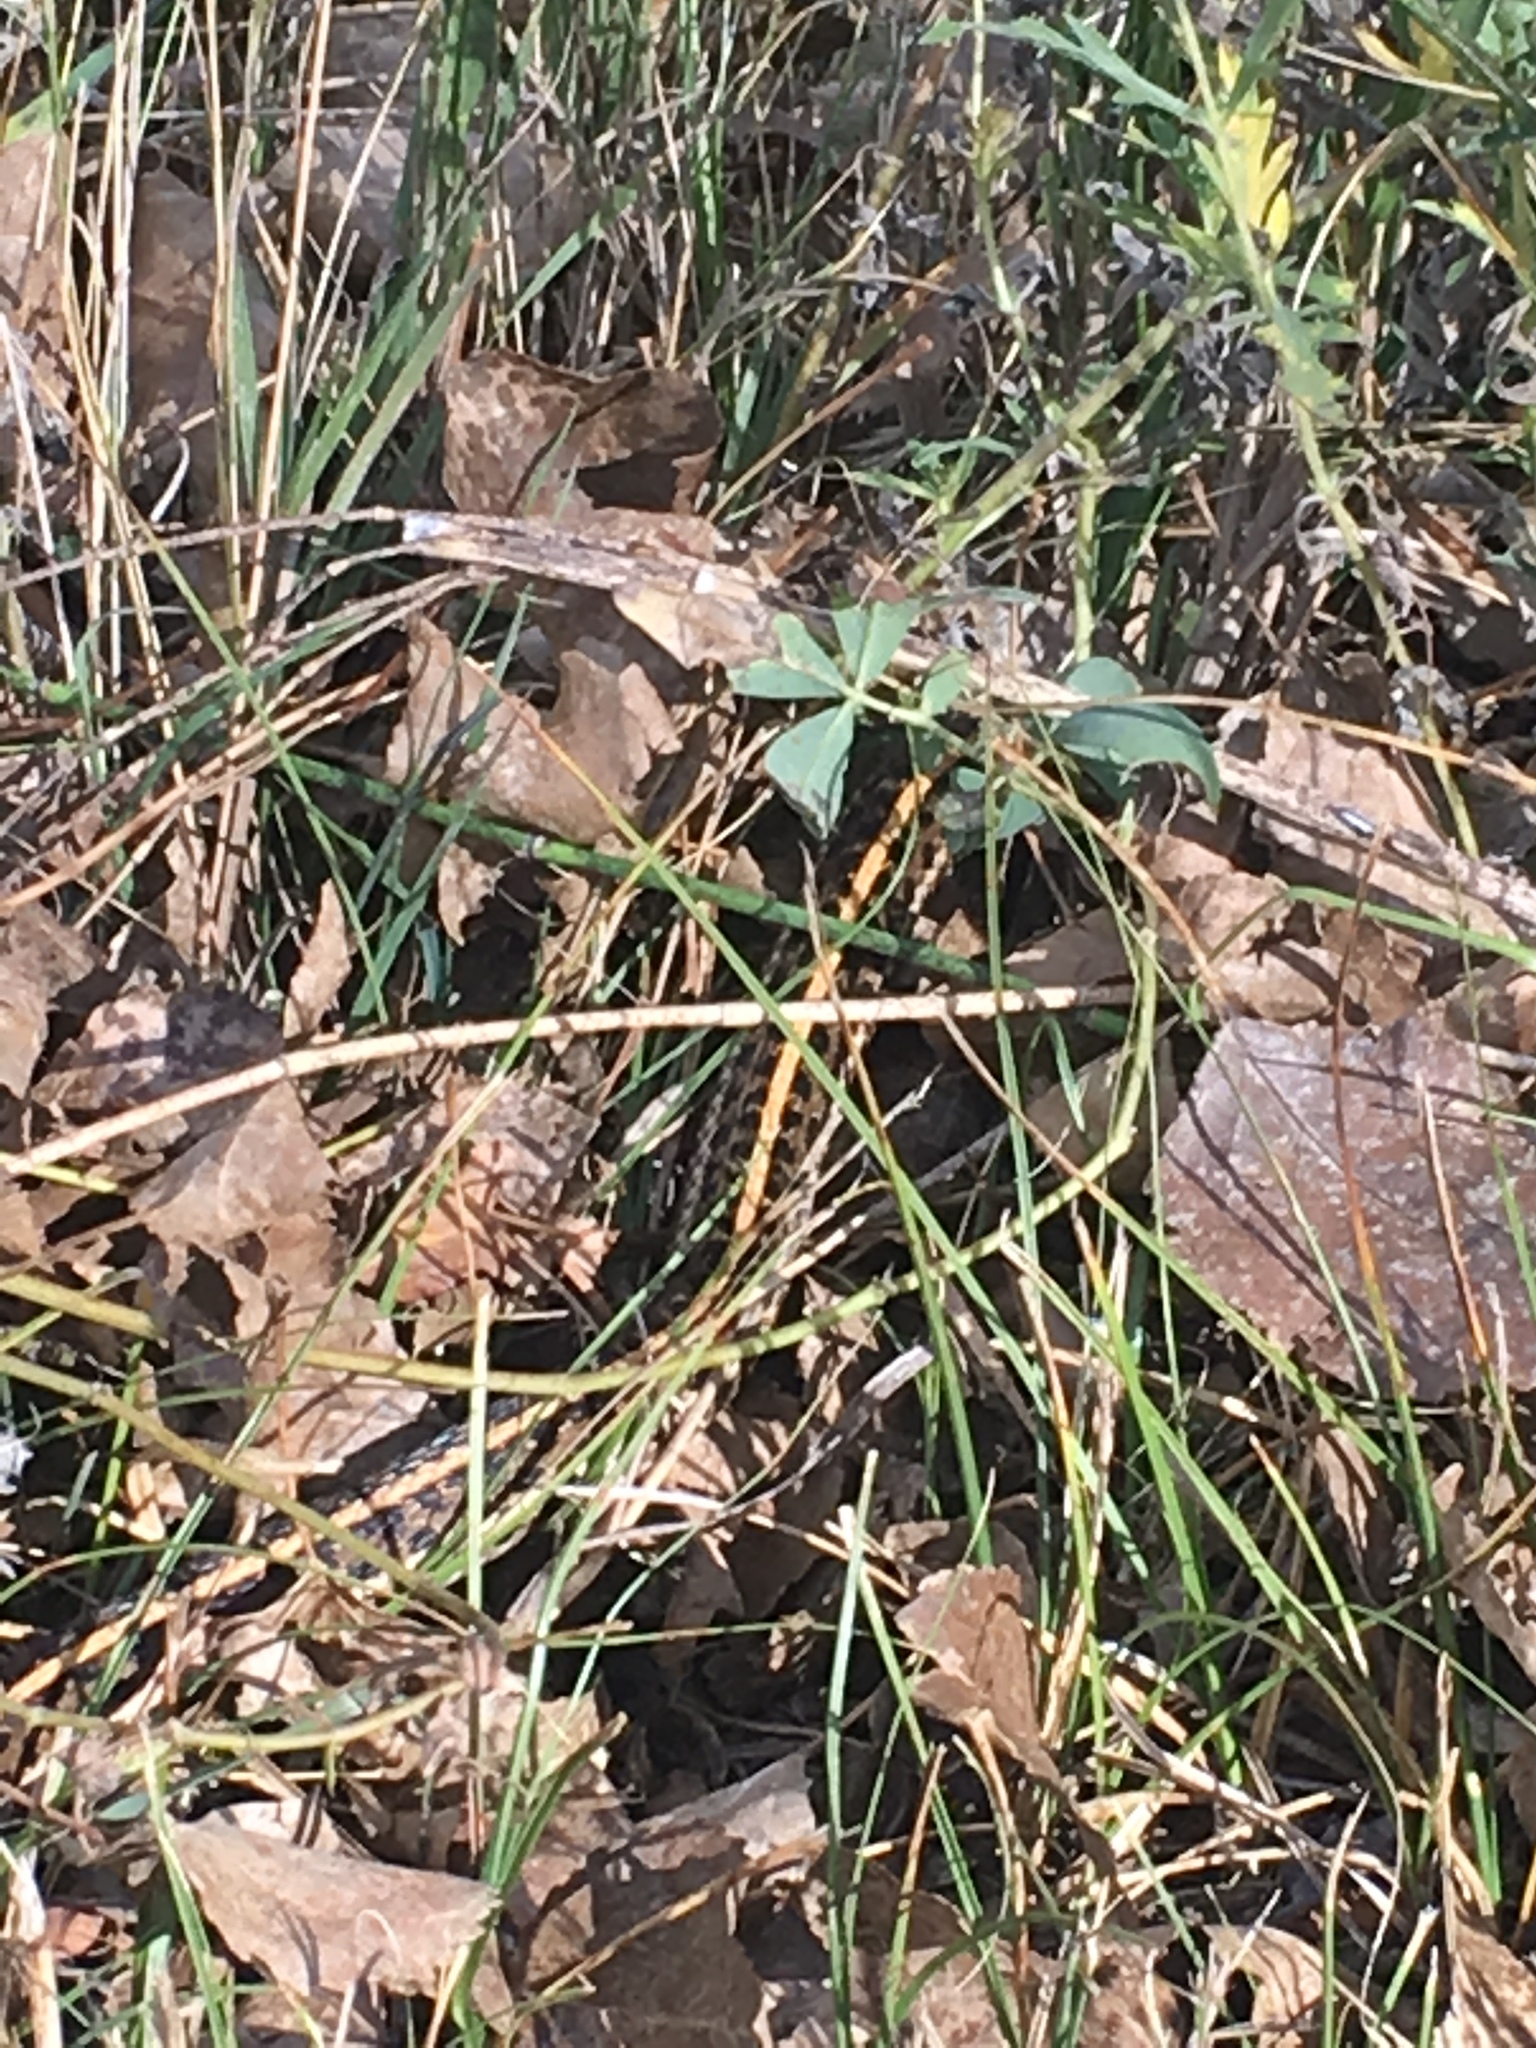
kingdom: Animalia
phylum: Chordata
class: Squamata
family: Colubridae
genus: Thamnophis
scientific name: Thamnophis radix
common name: Plains garter snake
